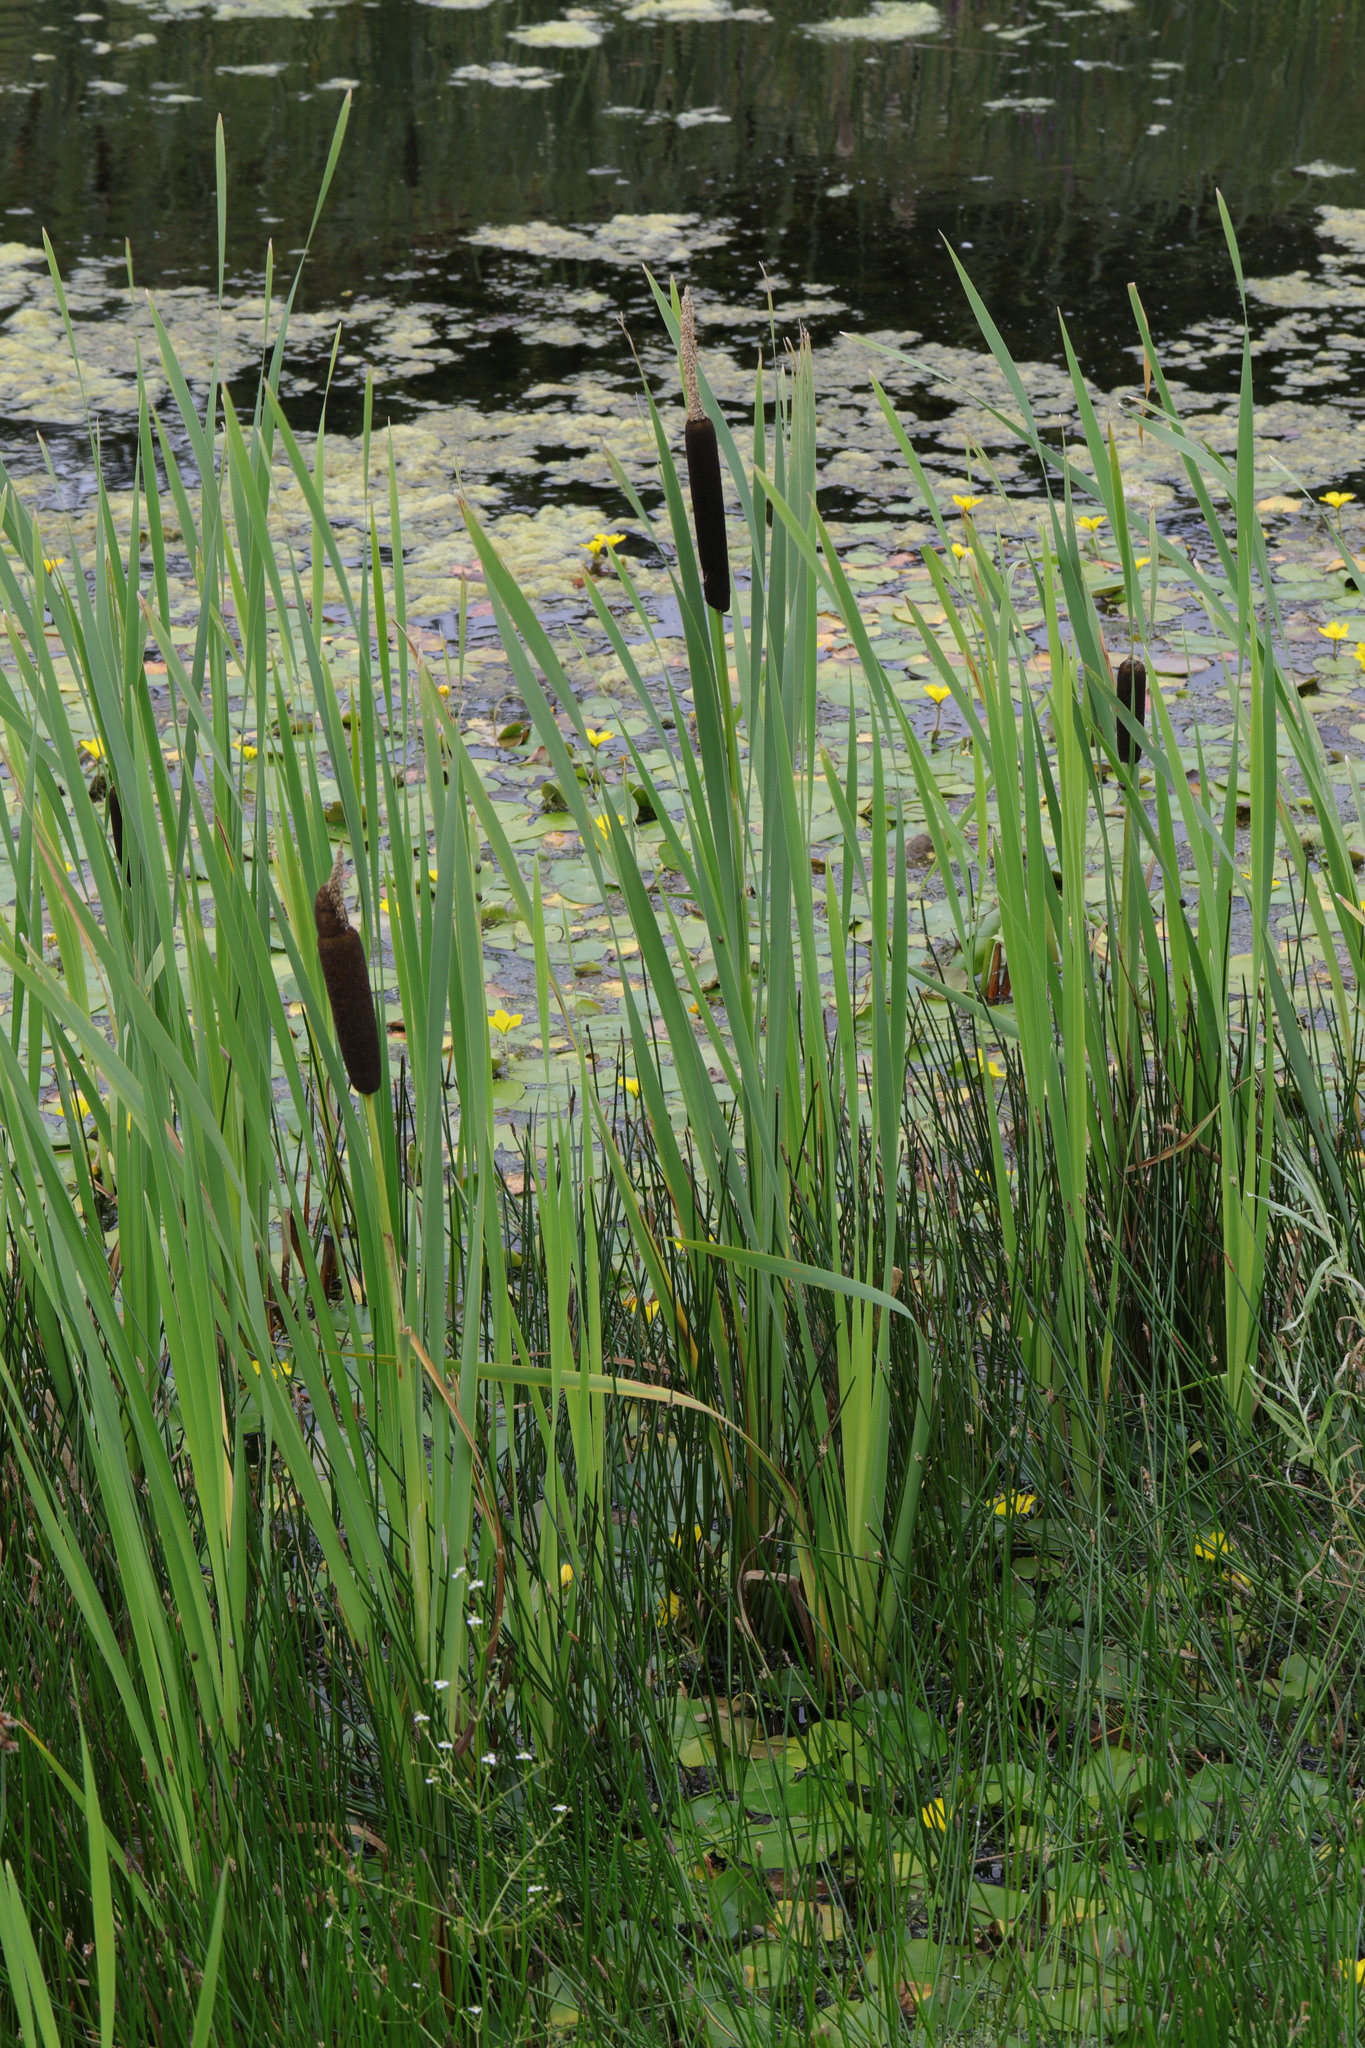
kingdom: Plantae
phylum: Tracheophyta
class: Liliopsida
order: Poales
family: Typhaceae
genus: Typha
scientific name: Typha latifolia
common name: Broadleaf cattail
